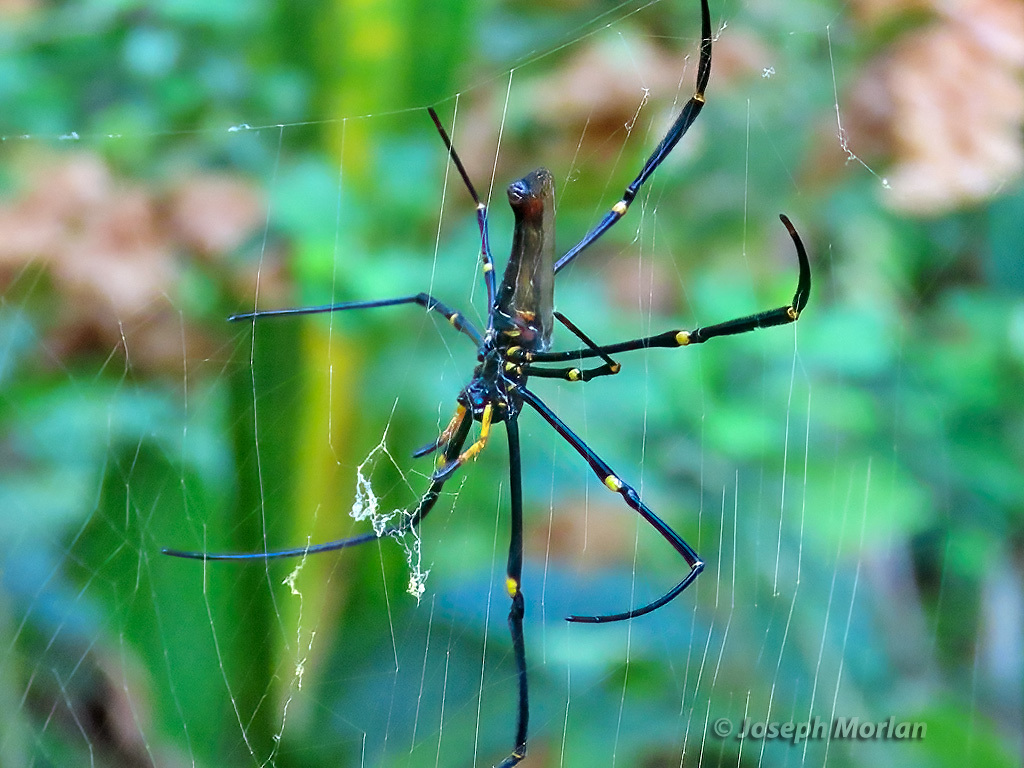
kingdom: Animalia
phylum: Arthropoda
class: Arachnida
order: Araneae
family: Araneidae
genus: Nephila
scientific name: Nephila pilipes
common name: Giant golden orb weaver
